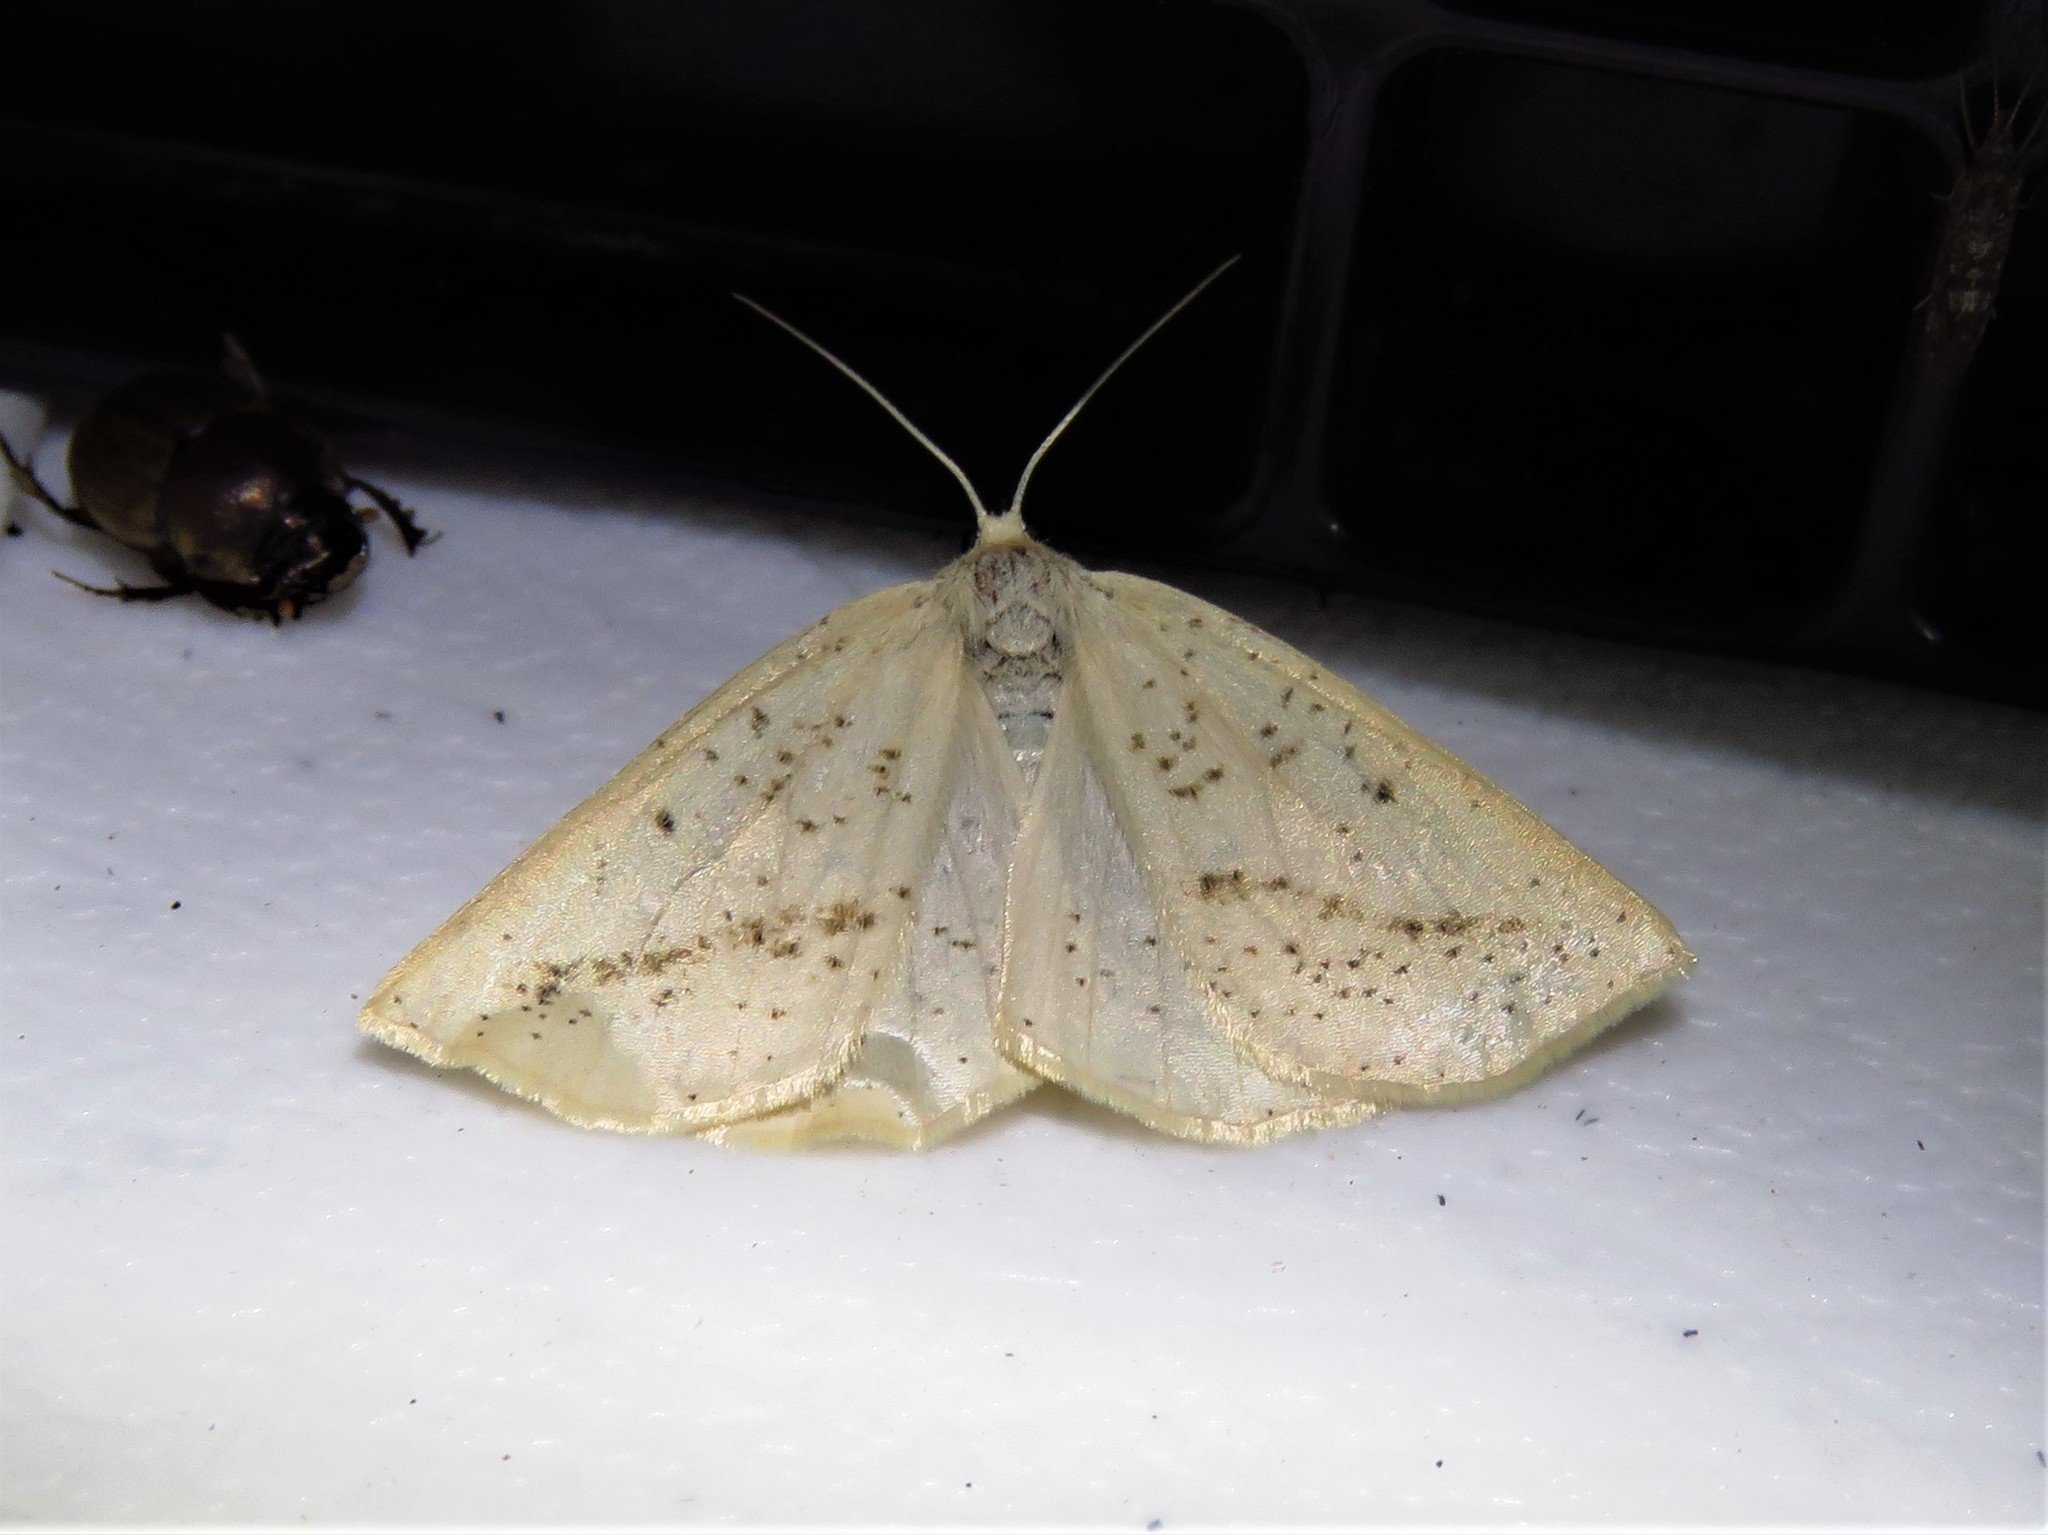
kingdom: Animalia
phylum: Arthropoda
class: Insecta
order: Lepidoptera
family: Geometridae
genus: Lychnosea
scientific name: Lychnosea intermicata
